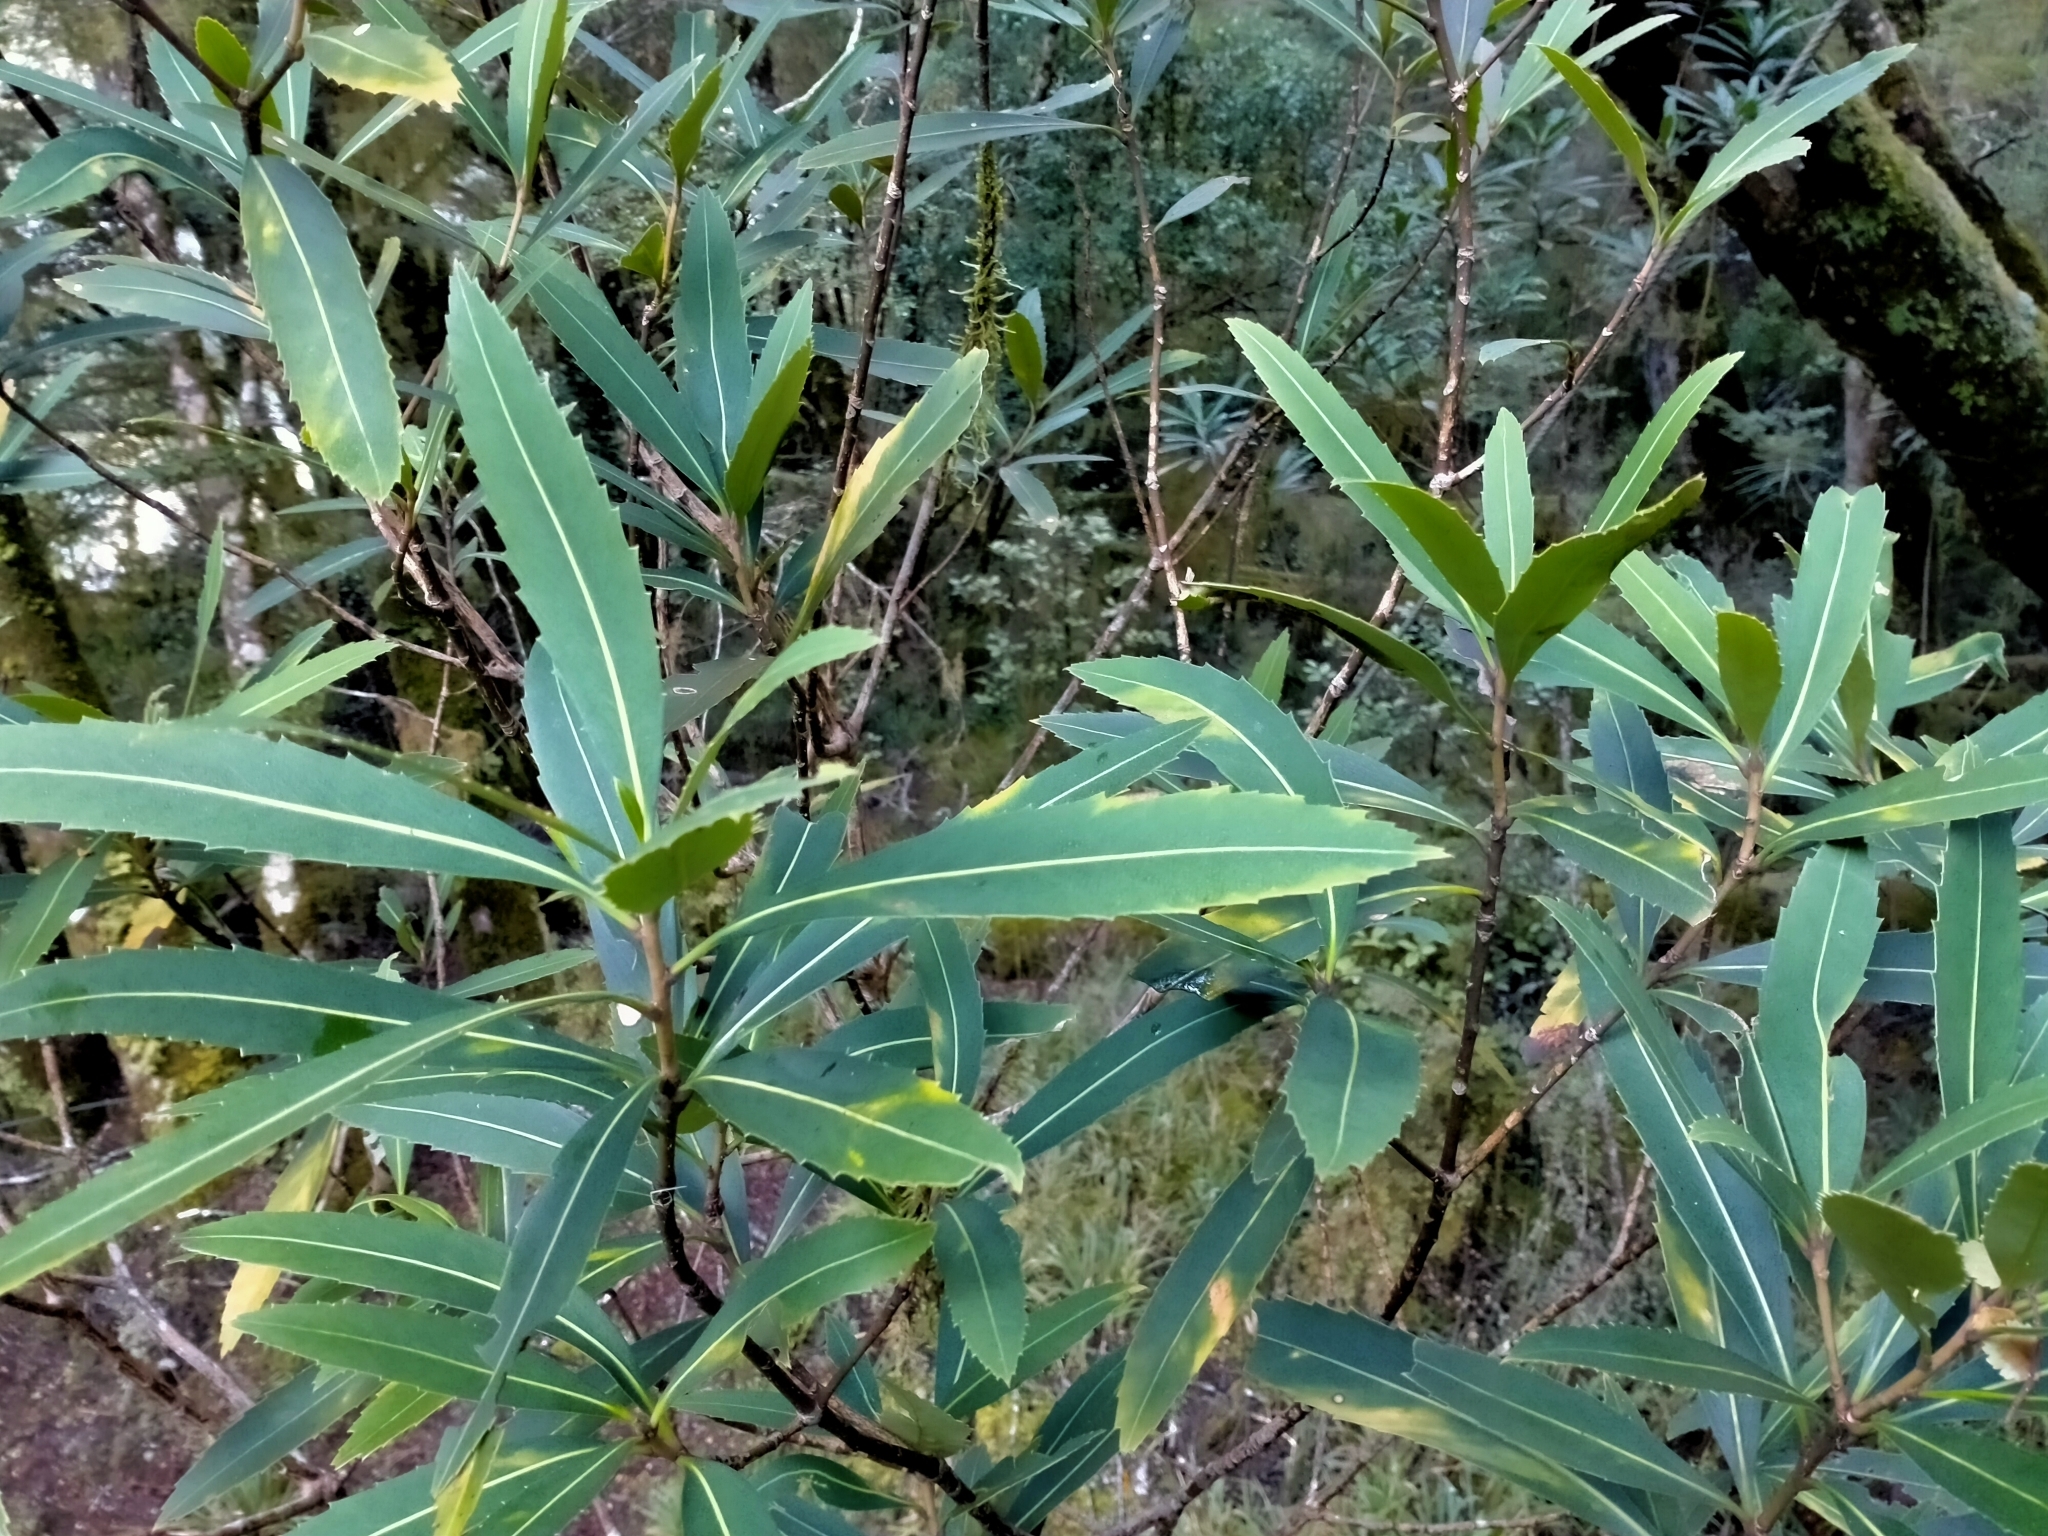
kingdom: Plantae
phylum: Tracheophyta
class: Magnoliopsida
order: Apiales
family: Araliaceae
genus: Pseudopanax
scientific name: Pseudopanax crassifolius
